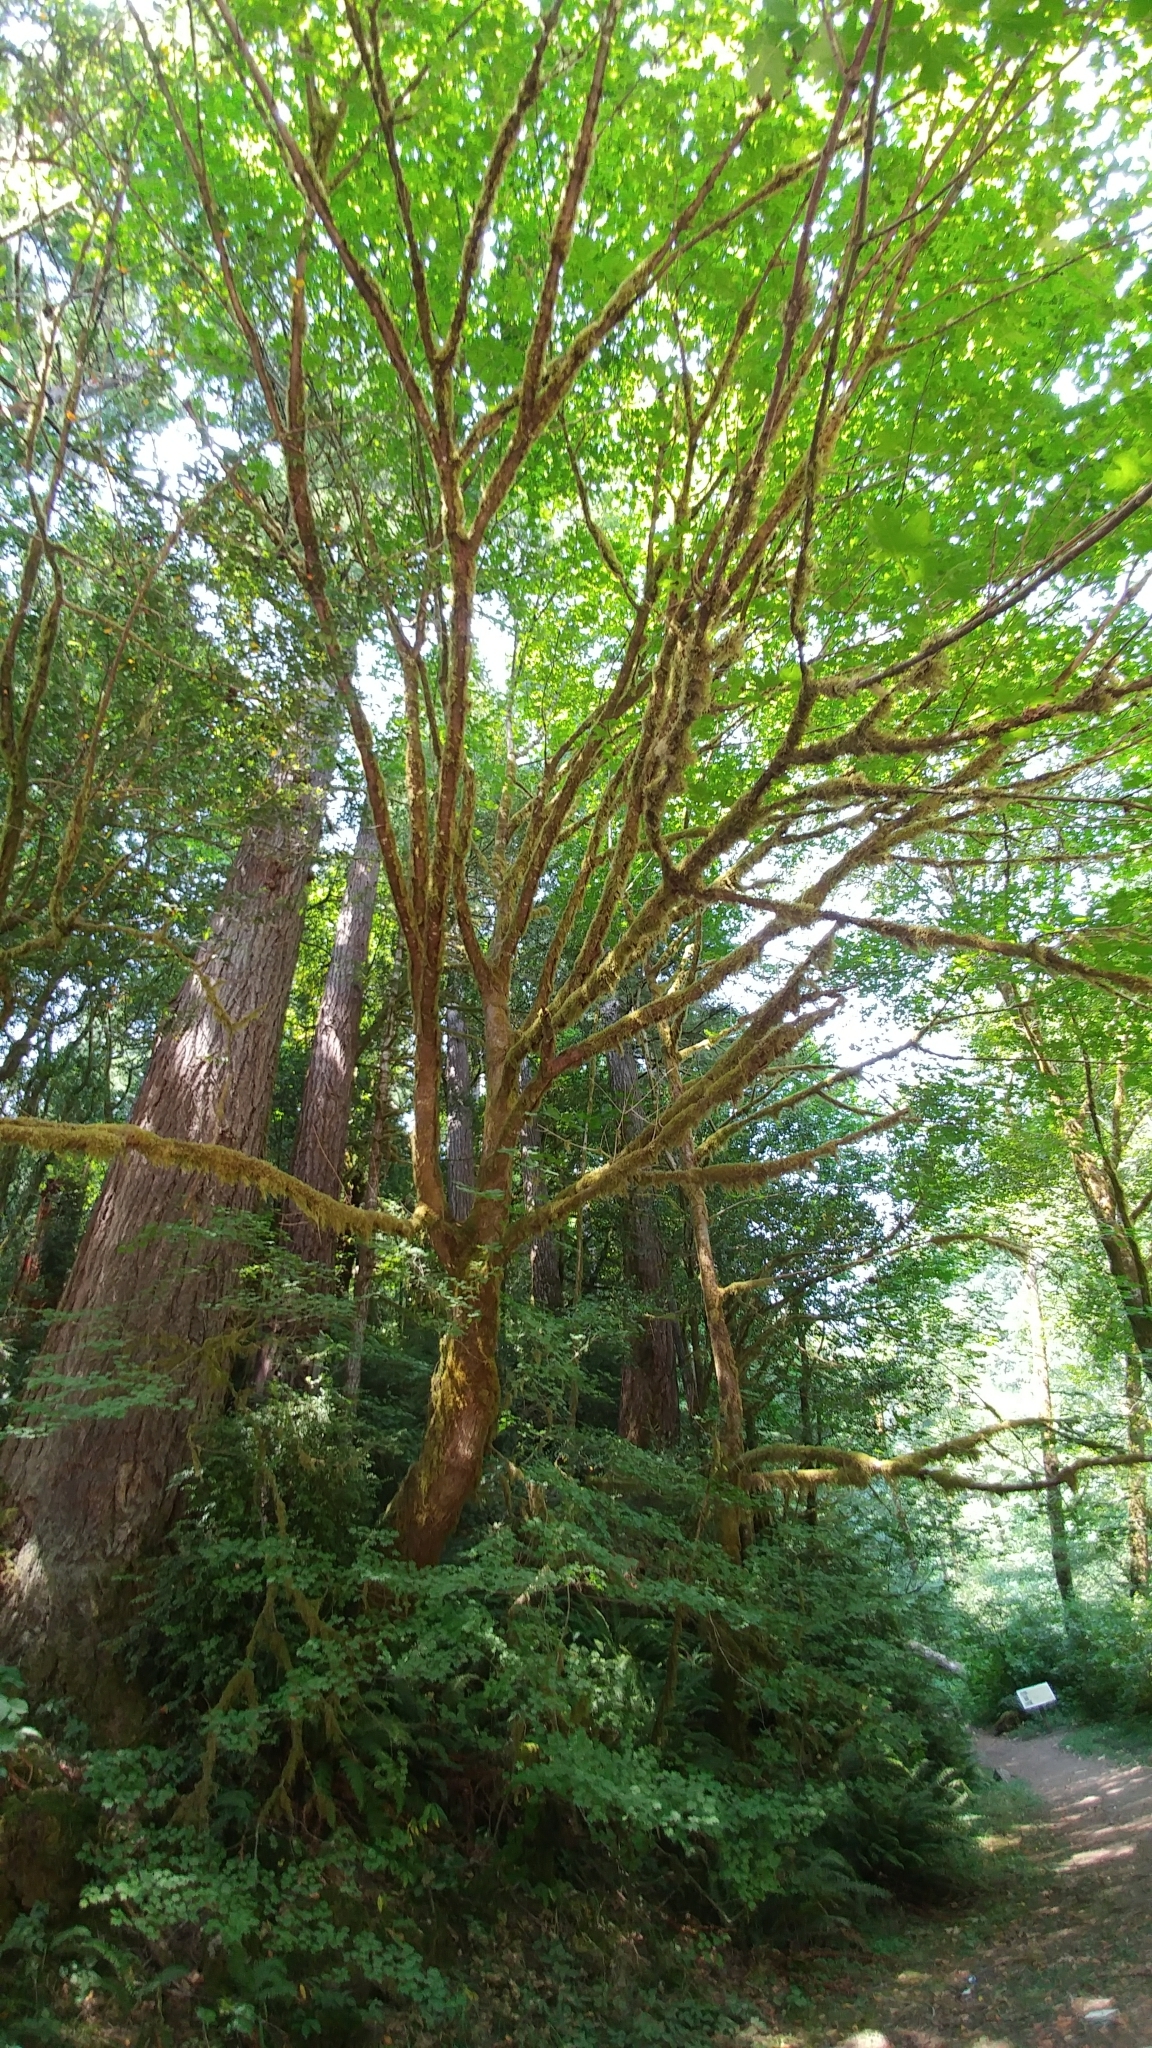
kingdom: Plantae
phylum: Tracheophyta
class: Magnoliopsida
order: Sapindales
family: Sapindaceae
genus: Acer
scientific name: Acer macrophyllum
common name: Oregon maple
